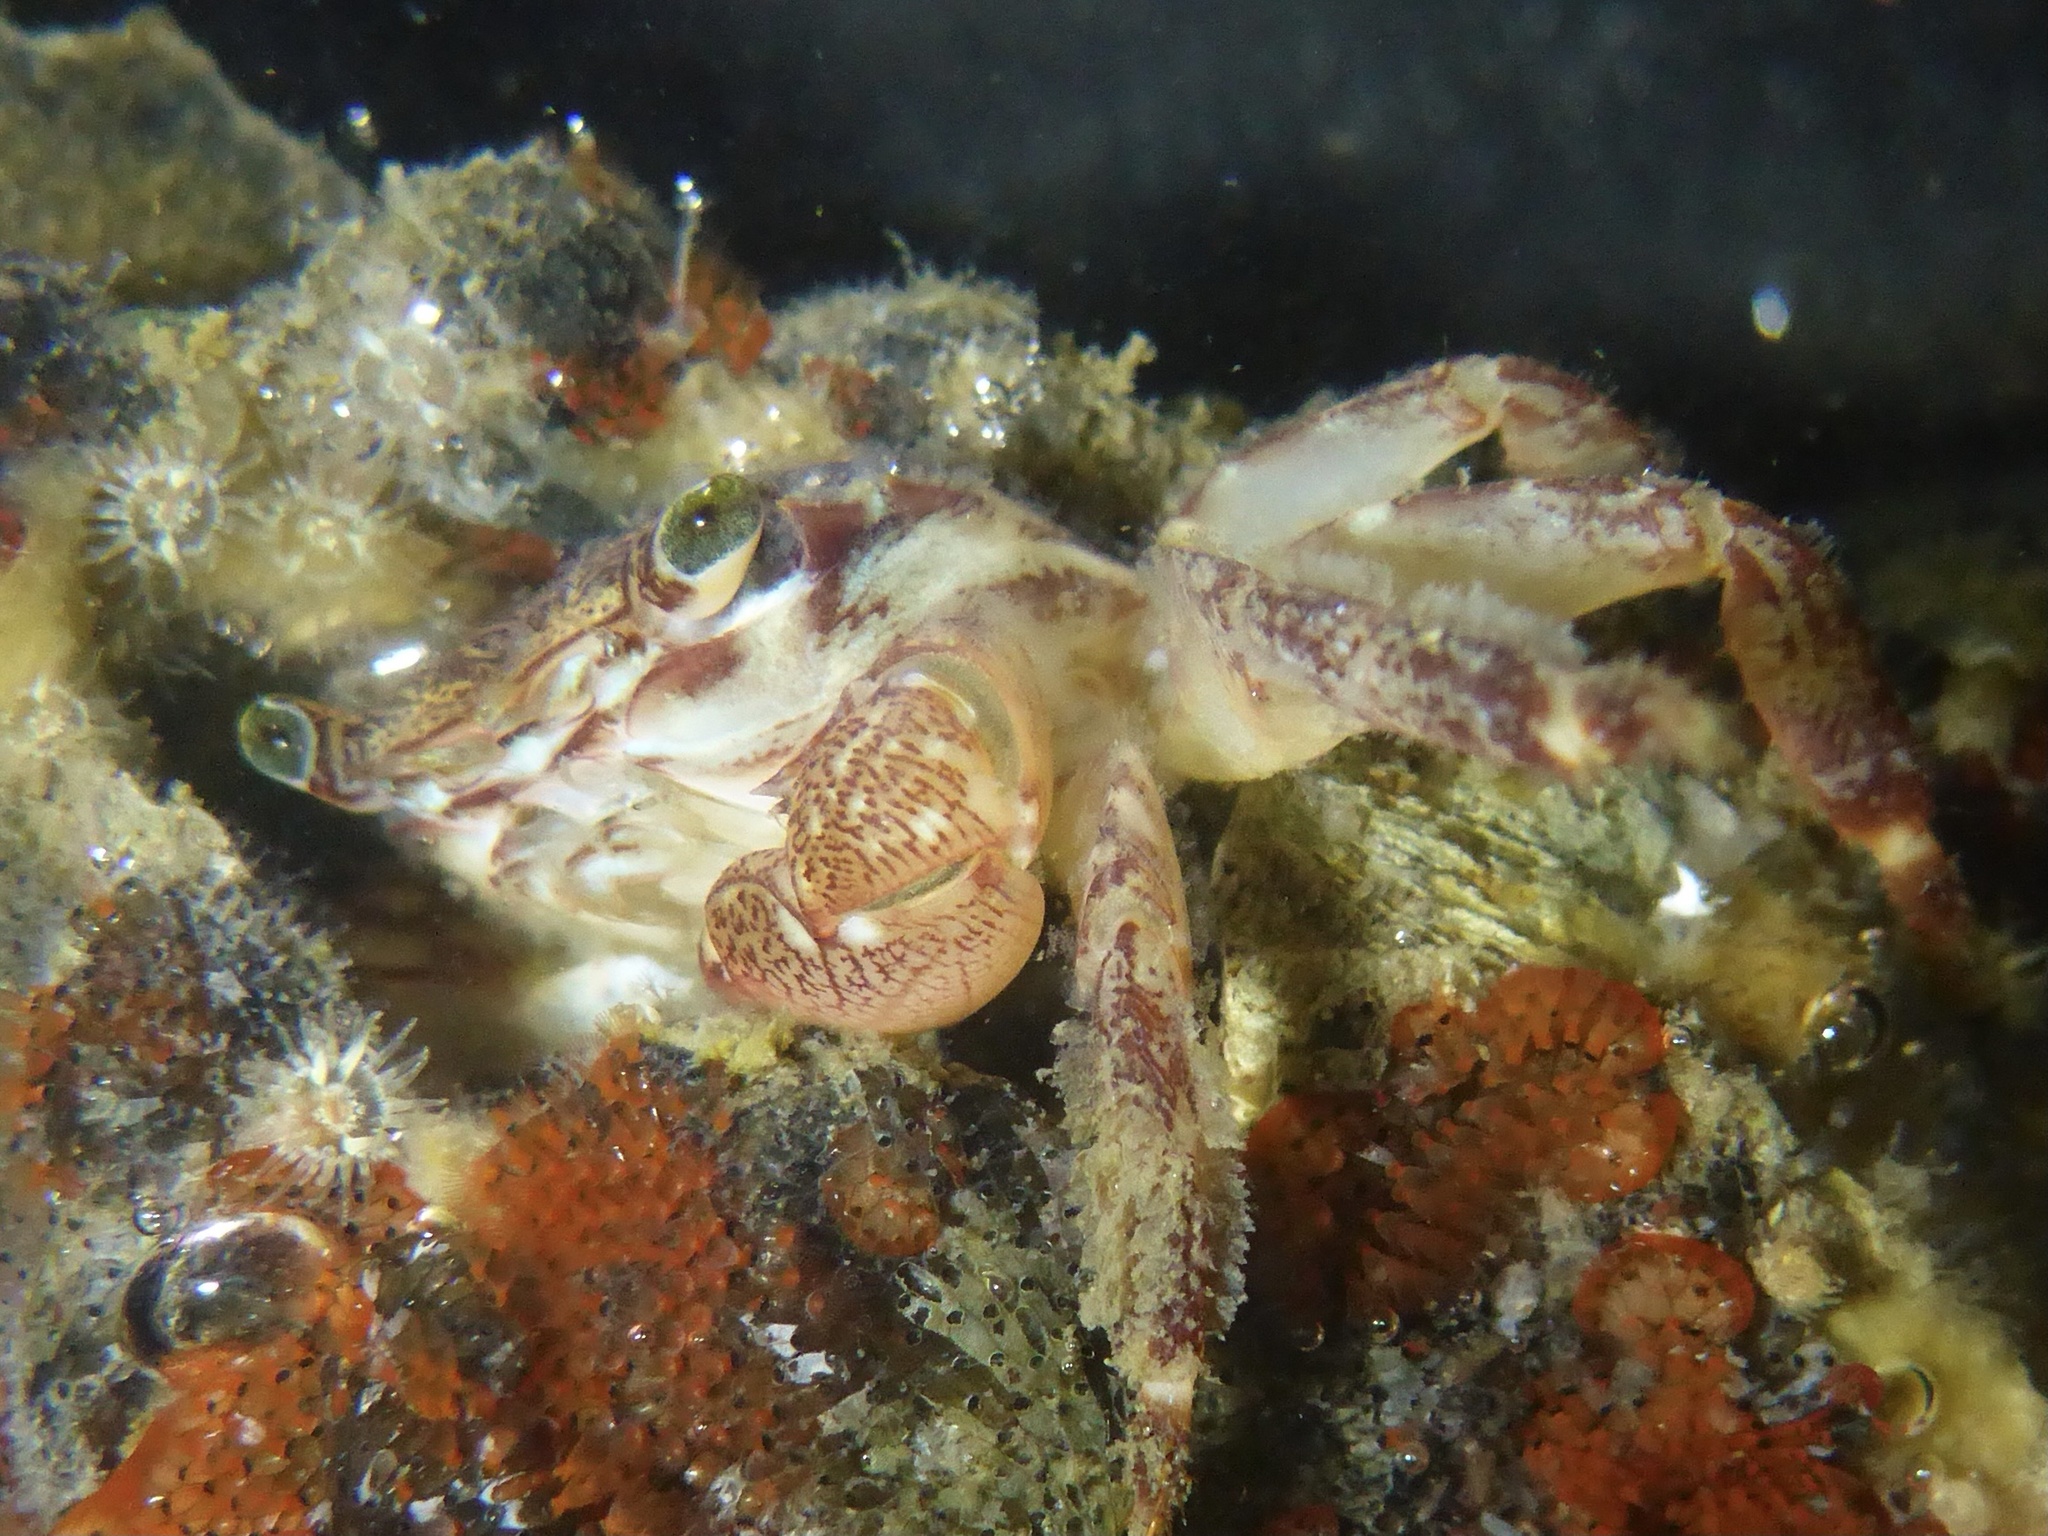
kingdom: Animalia
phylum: Arthropoda
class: Malacostraca
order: Decapoda
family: Grapsidae
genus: Pachygrapsus
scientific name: Pachygrapsus crassipes
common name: Striped shore crab
